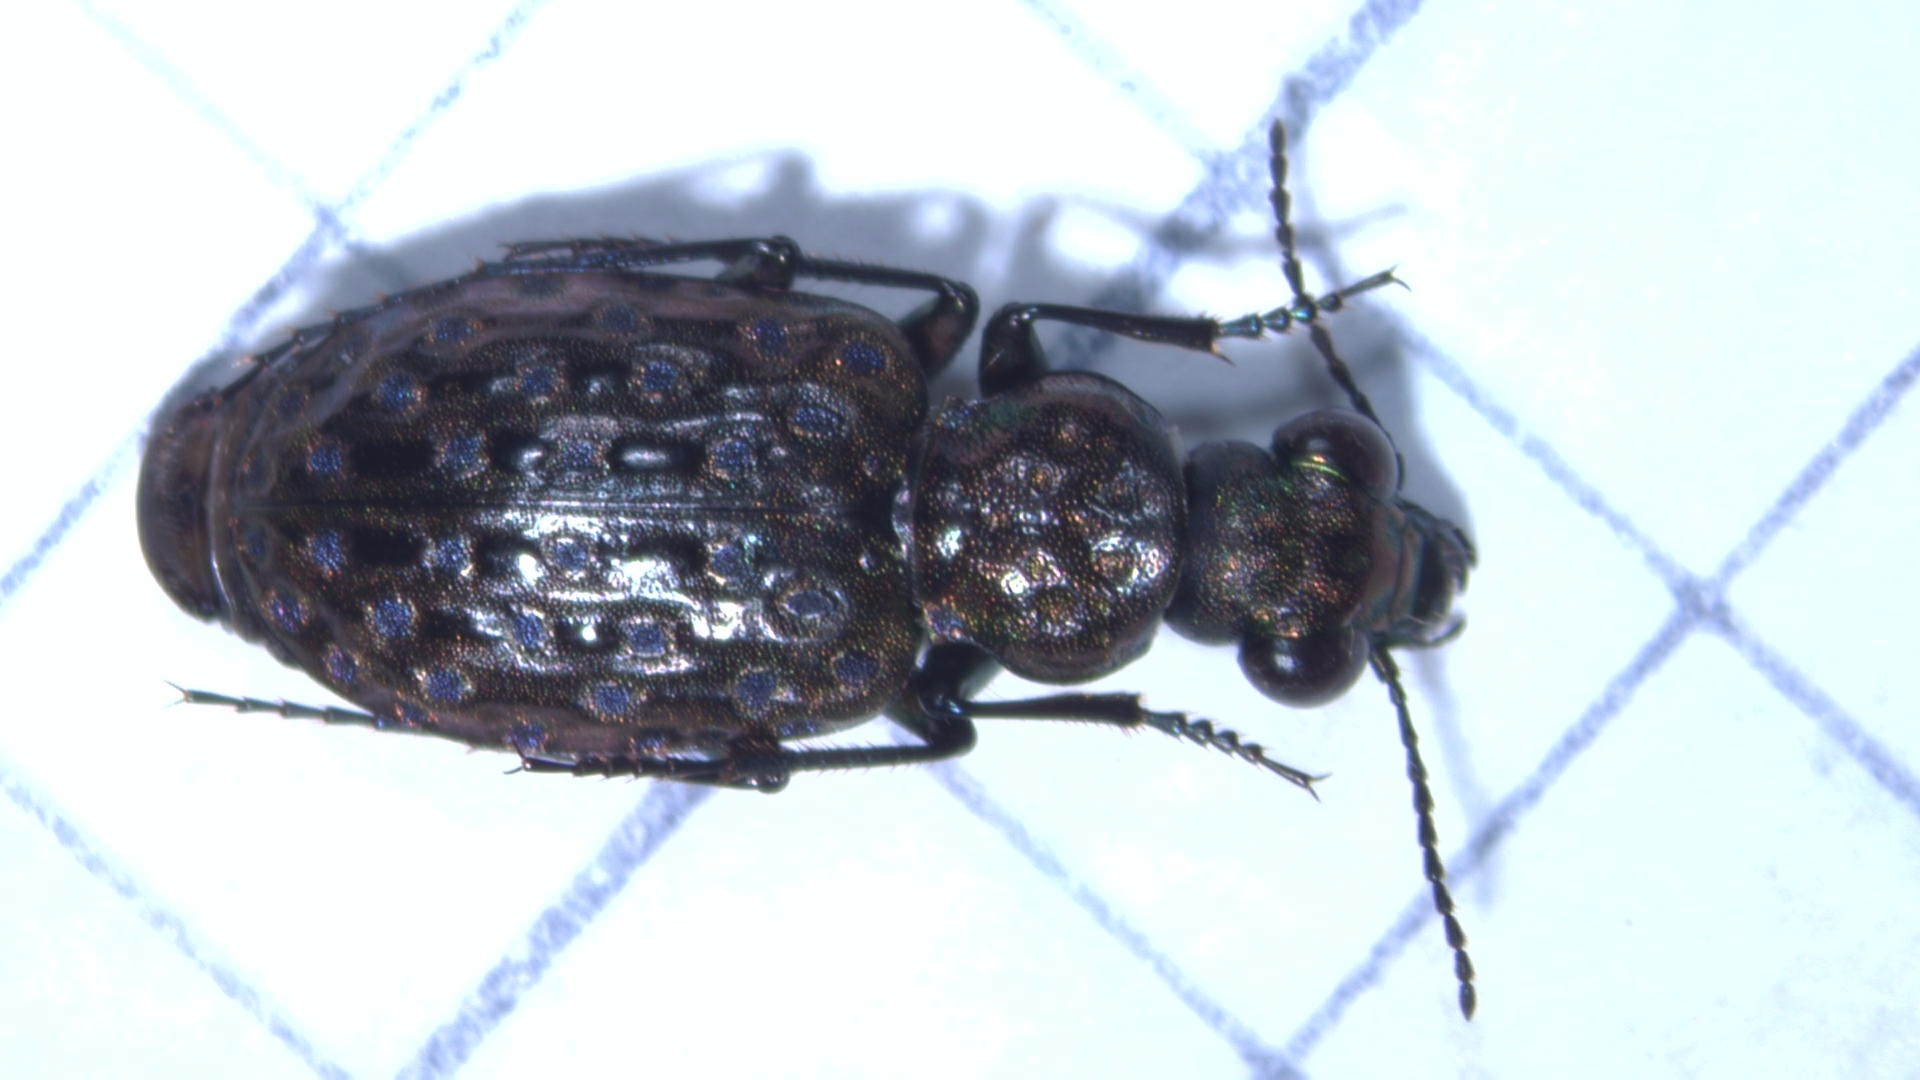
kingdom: Animalia
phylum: Arthropoda
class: Insecta
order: Coleoptera
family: Carabidae
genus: Elaphrus
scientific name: Elaphrus uliginosus
